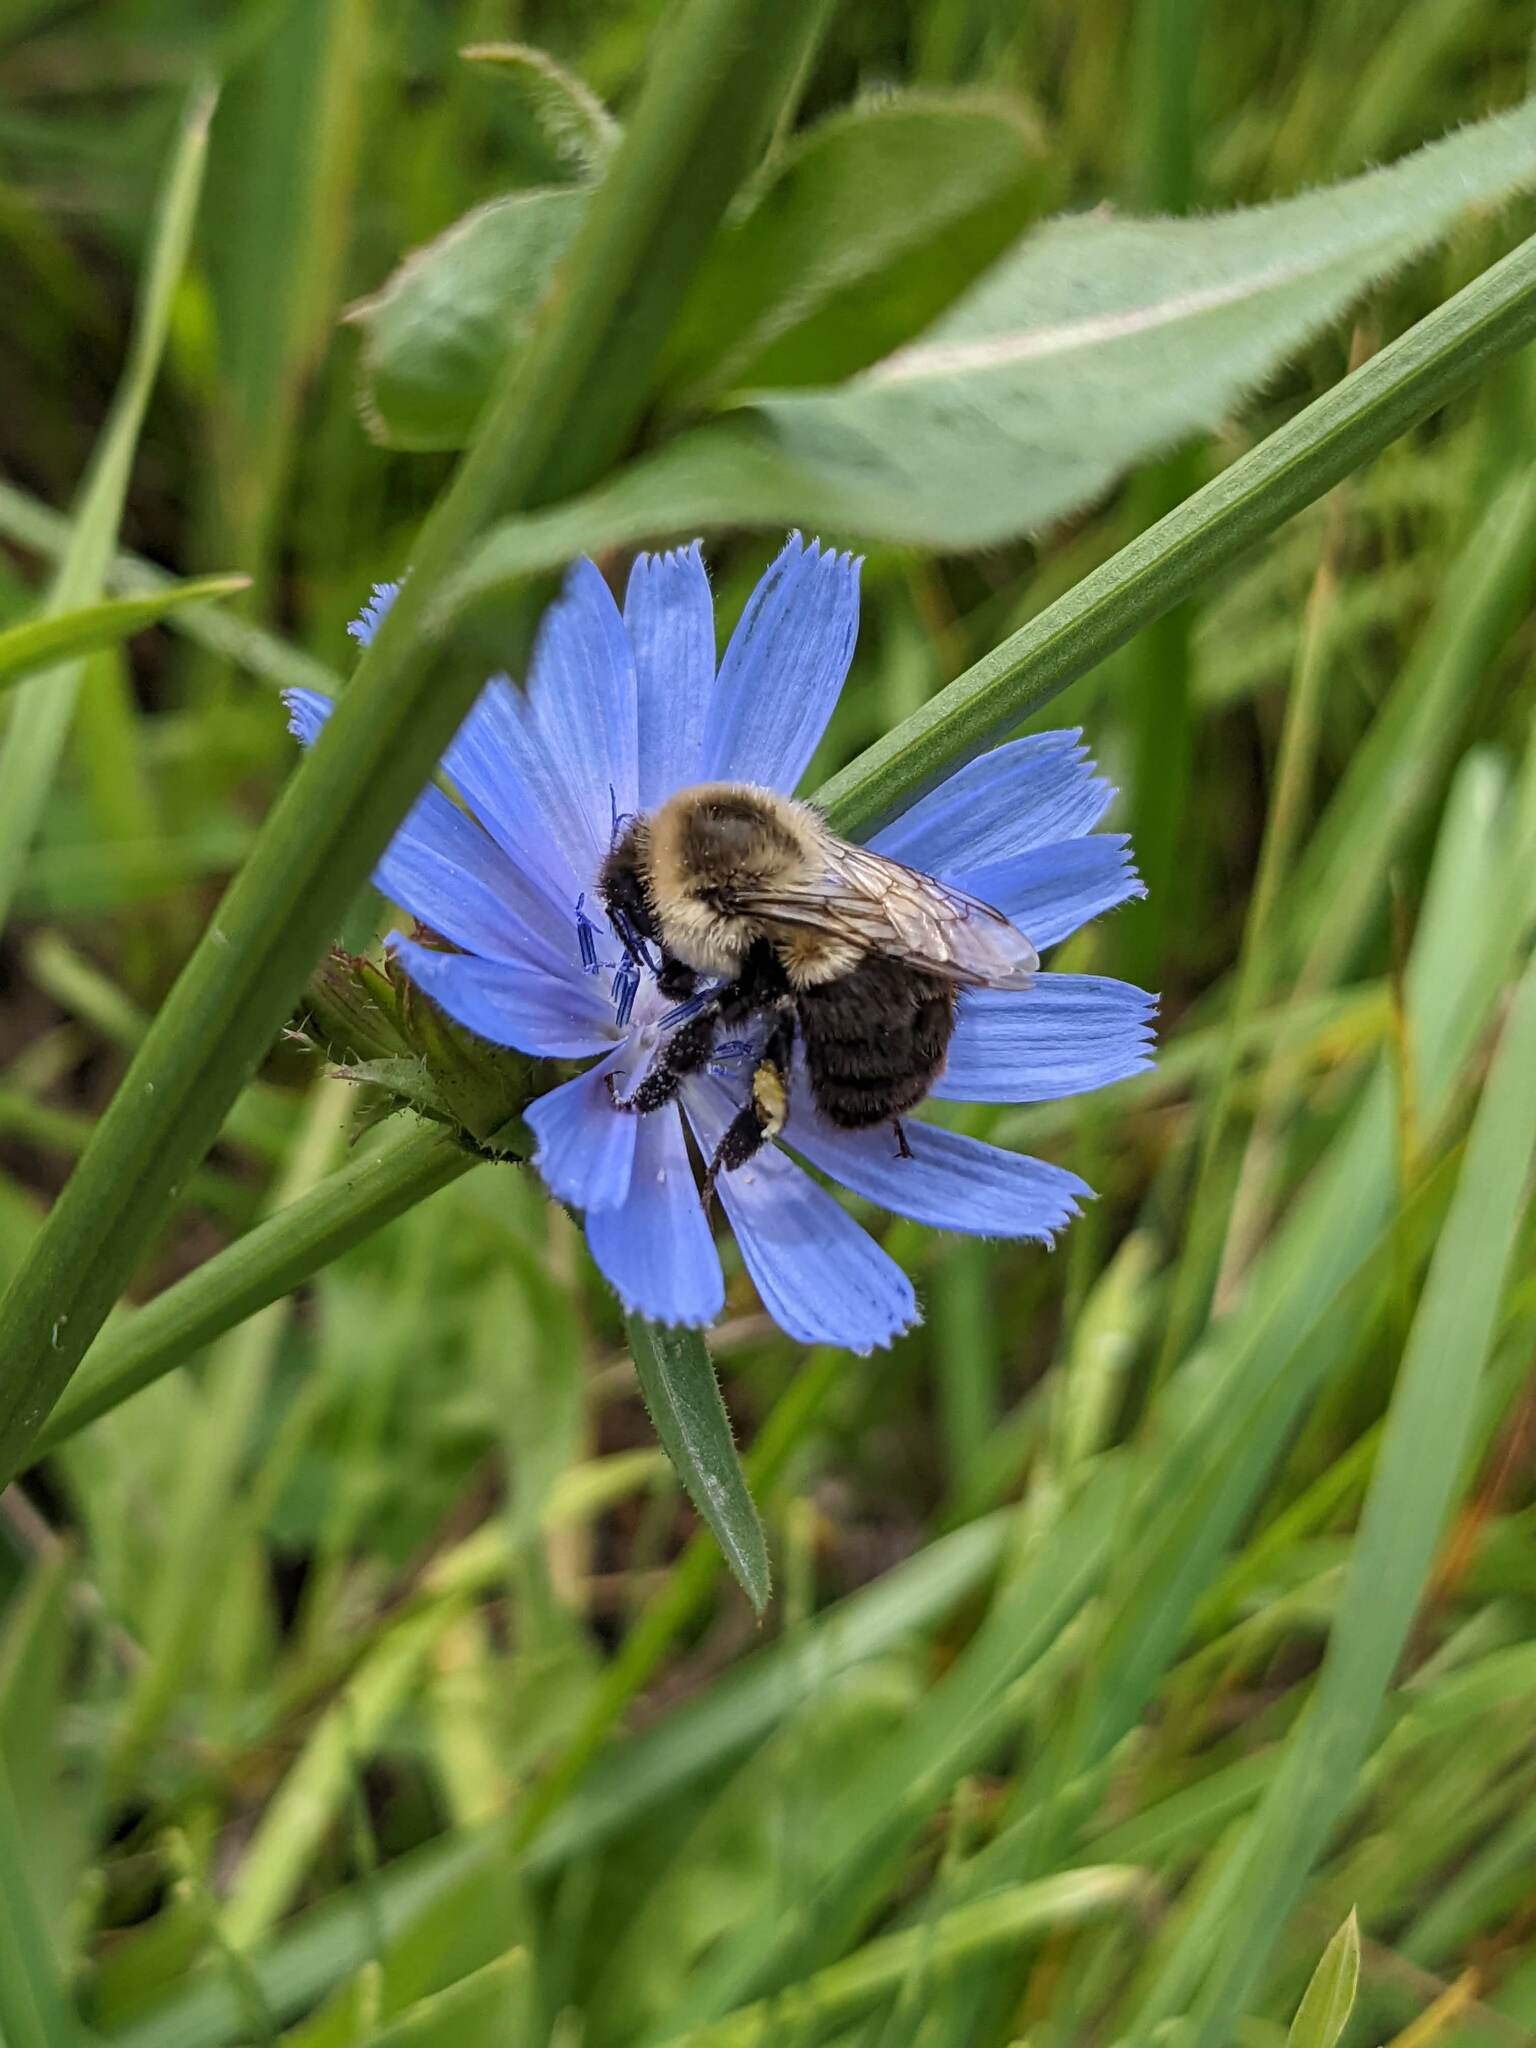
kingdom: Animalia
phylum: Arthropoda
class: Insecta
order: Hymenoptera
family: Apidae
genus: Bombus
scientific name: Bombus impatiens
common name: Common eastern bumble bee
